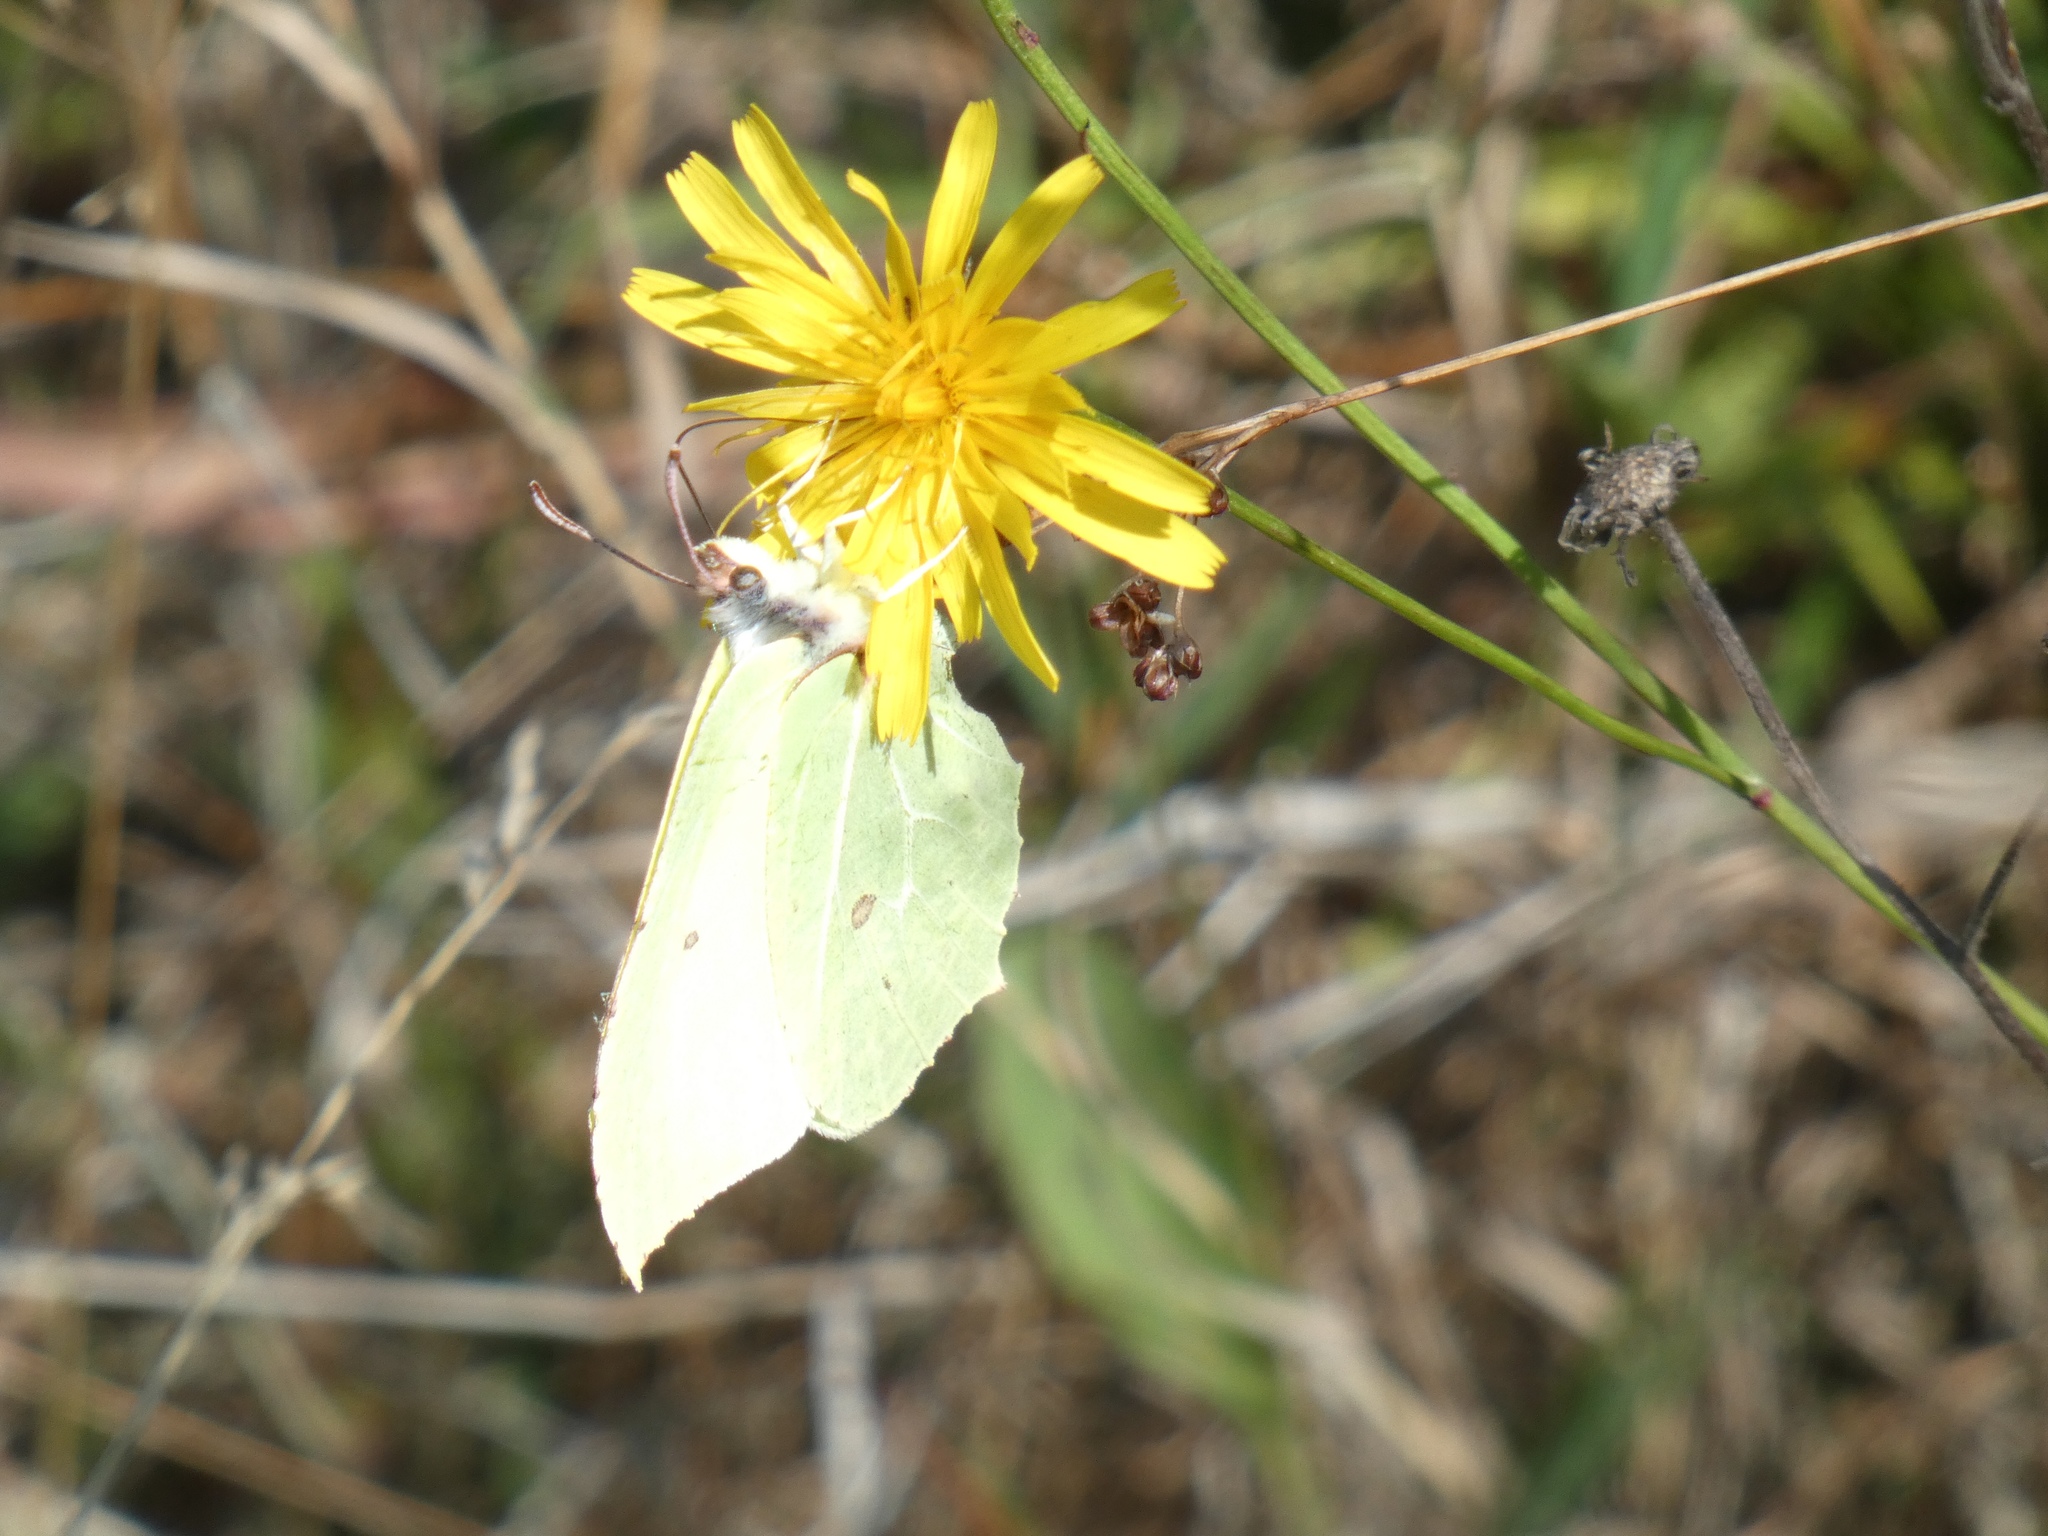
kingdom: Animalia
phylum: Arthropoda
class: Insecta
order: Lepidoptera
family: Pieridae
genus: Gonepteryx
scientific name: Gonepteryx rhamni
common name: Brimstone
